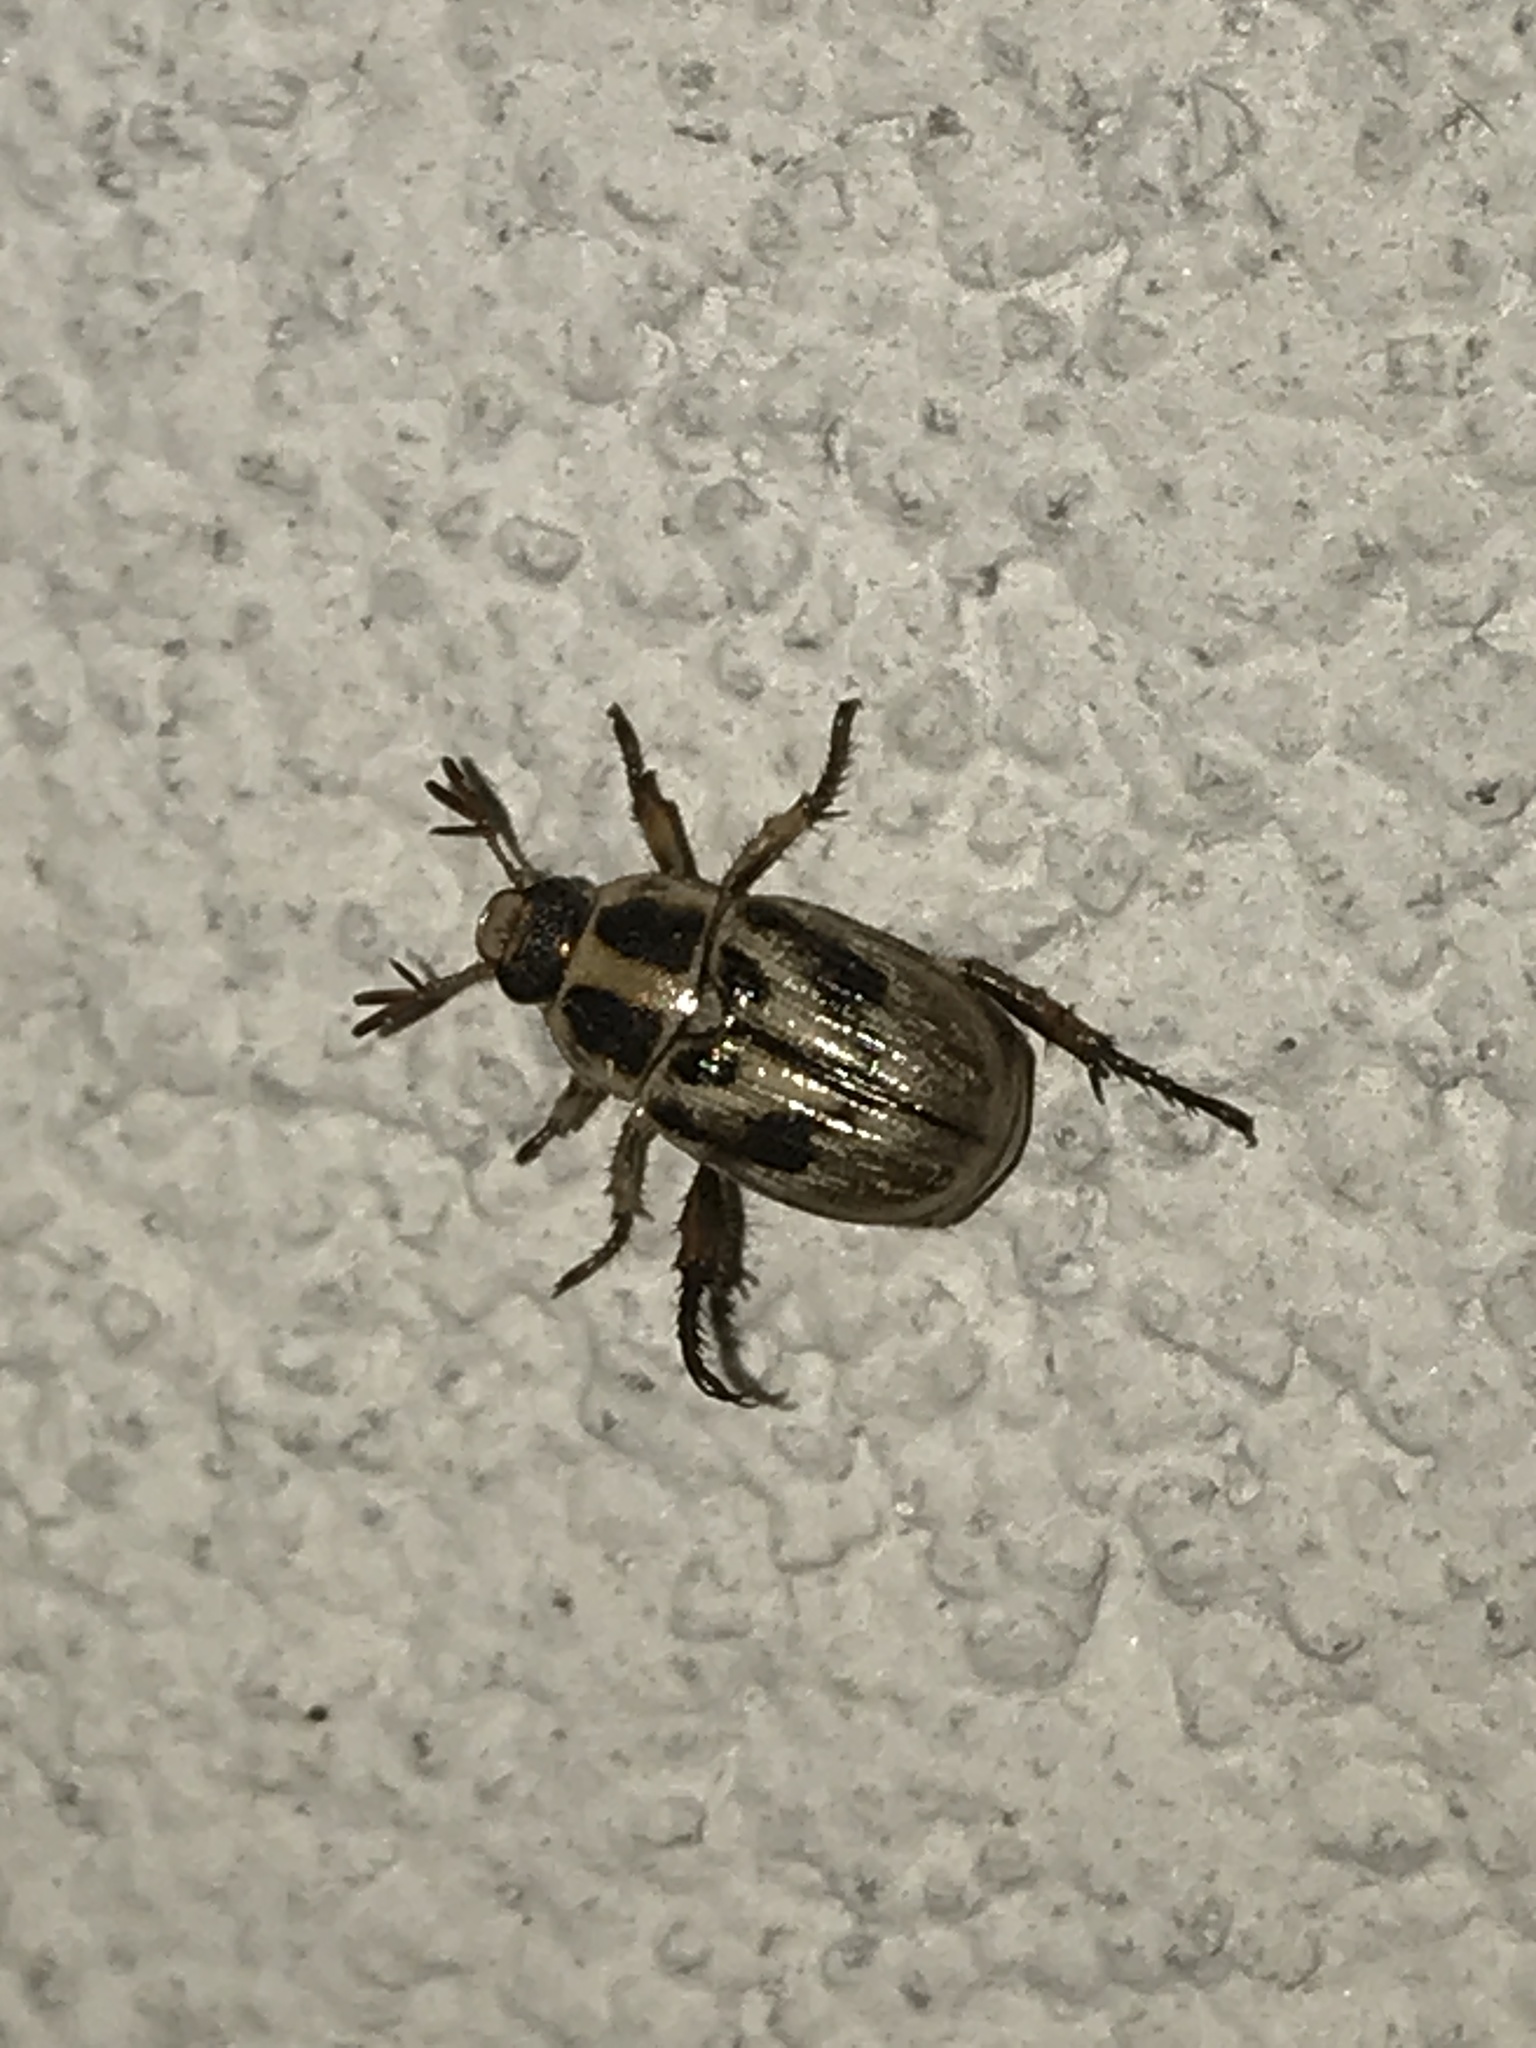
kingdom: Animalia
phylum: Arthropoda
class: Insecta
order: Coleoptera
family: Scarabaeidae
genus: Exomala
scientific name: Exomala orientalis
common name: Oriental beetle
